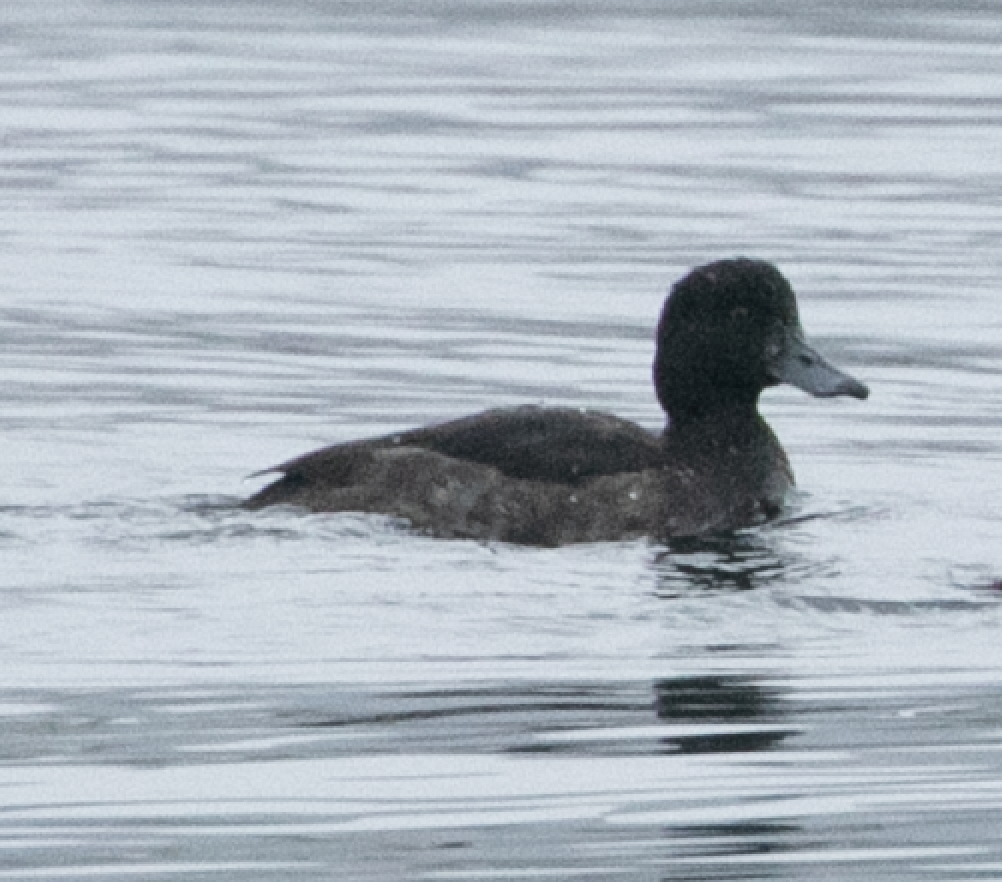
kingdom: Animalia
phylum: Chordata
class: Aves
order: Anseriformes
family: Anatidae
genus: Aythya
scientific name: Aythya fuligula
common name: Tufted duck
